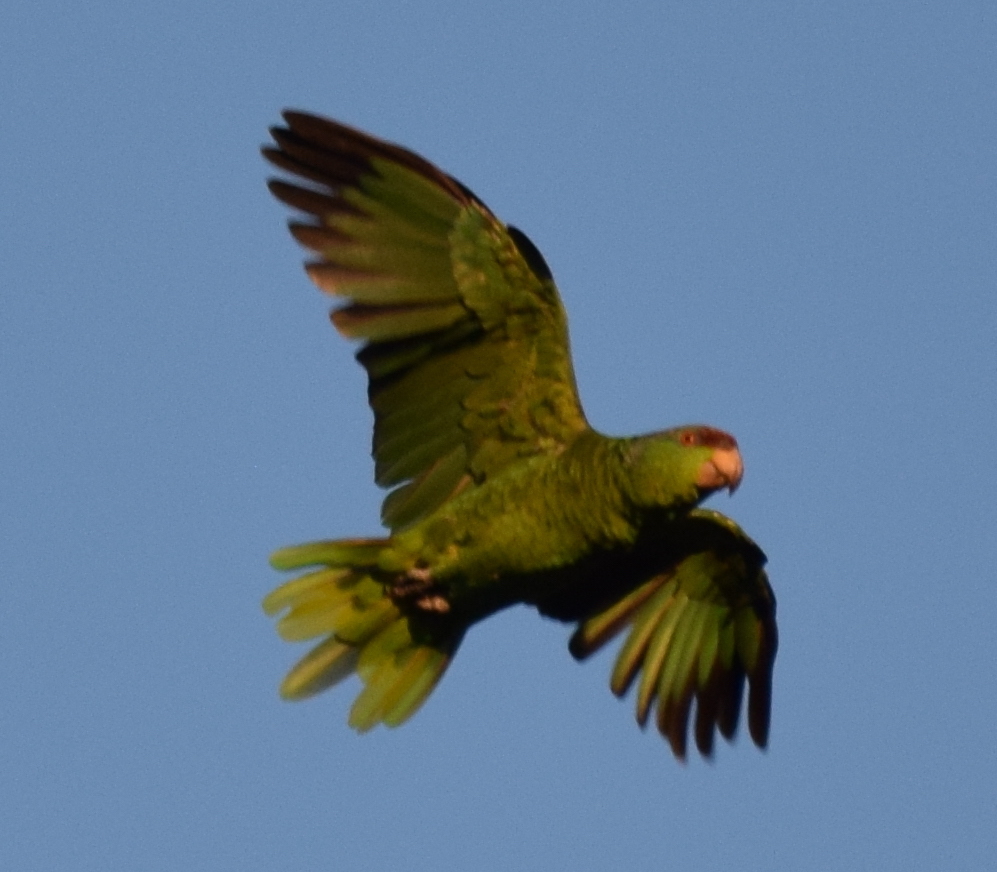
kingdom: Animalia
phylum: Chordata
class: Aves
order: Psittaciformes
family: Psittacidae
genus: Amazona
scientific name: Amazona finschi
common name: Lilac-crowned amazon
